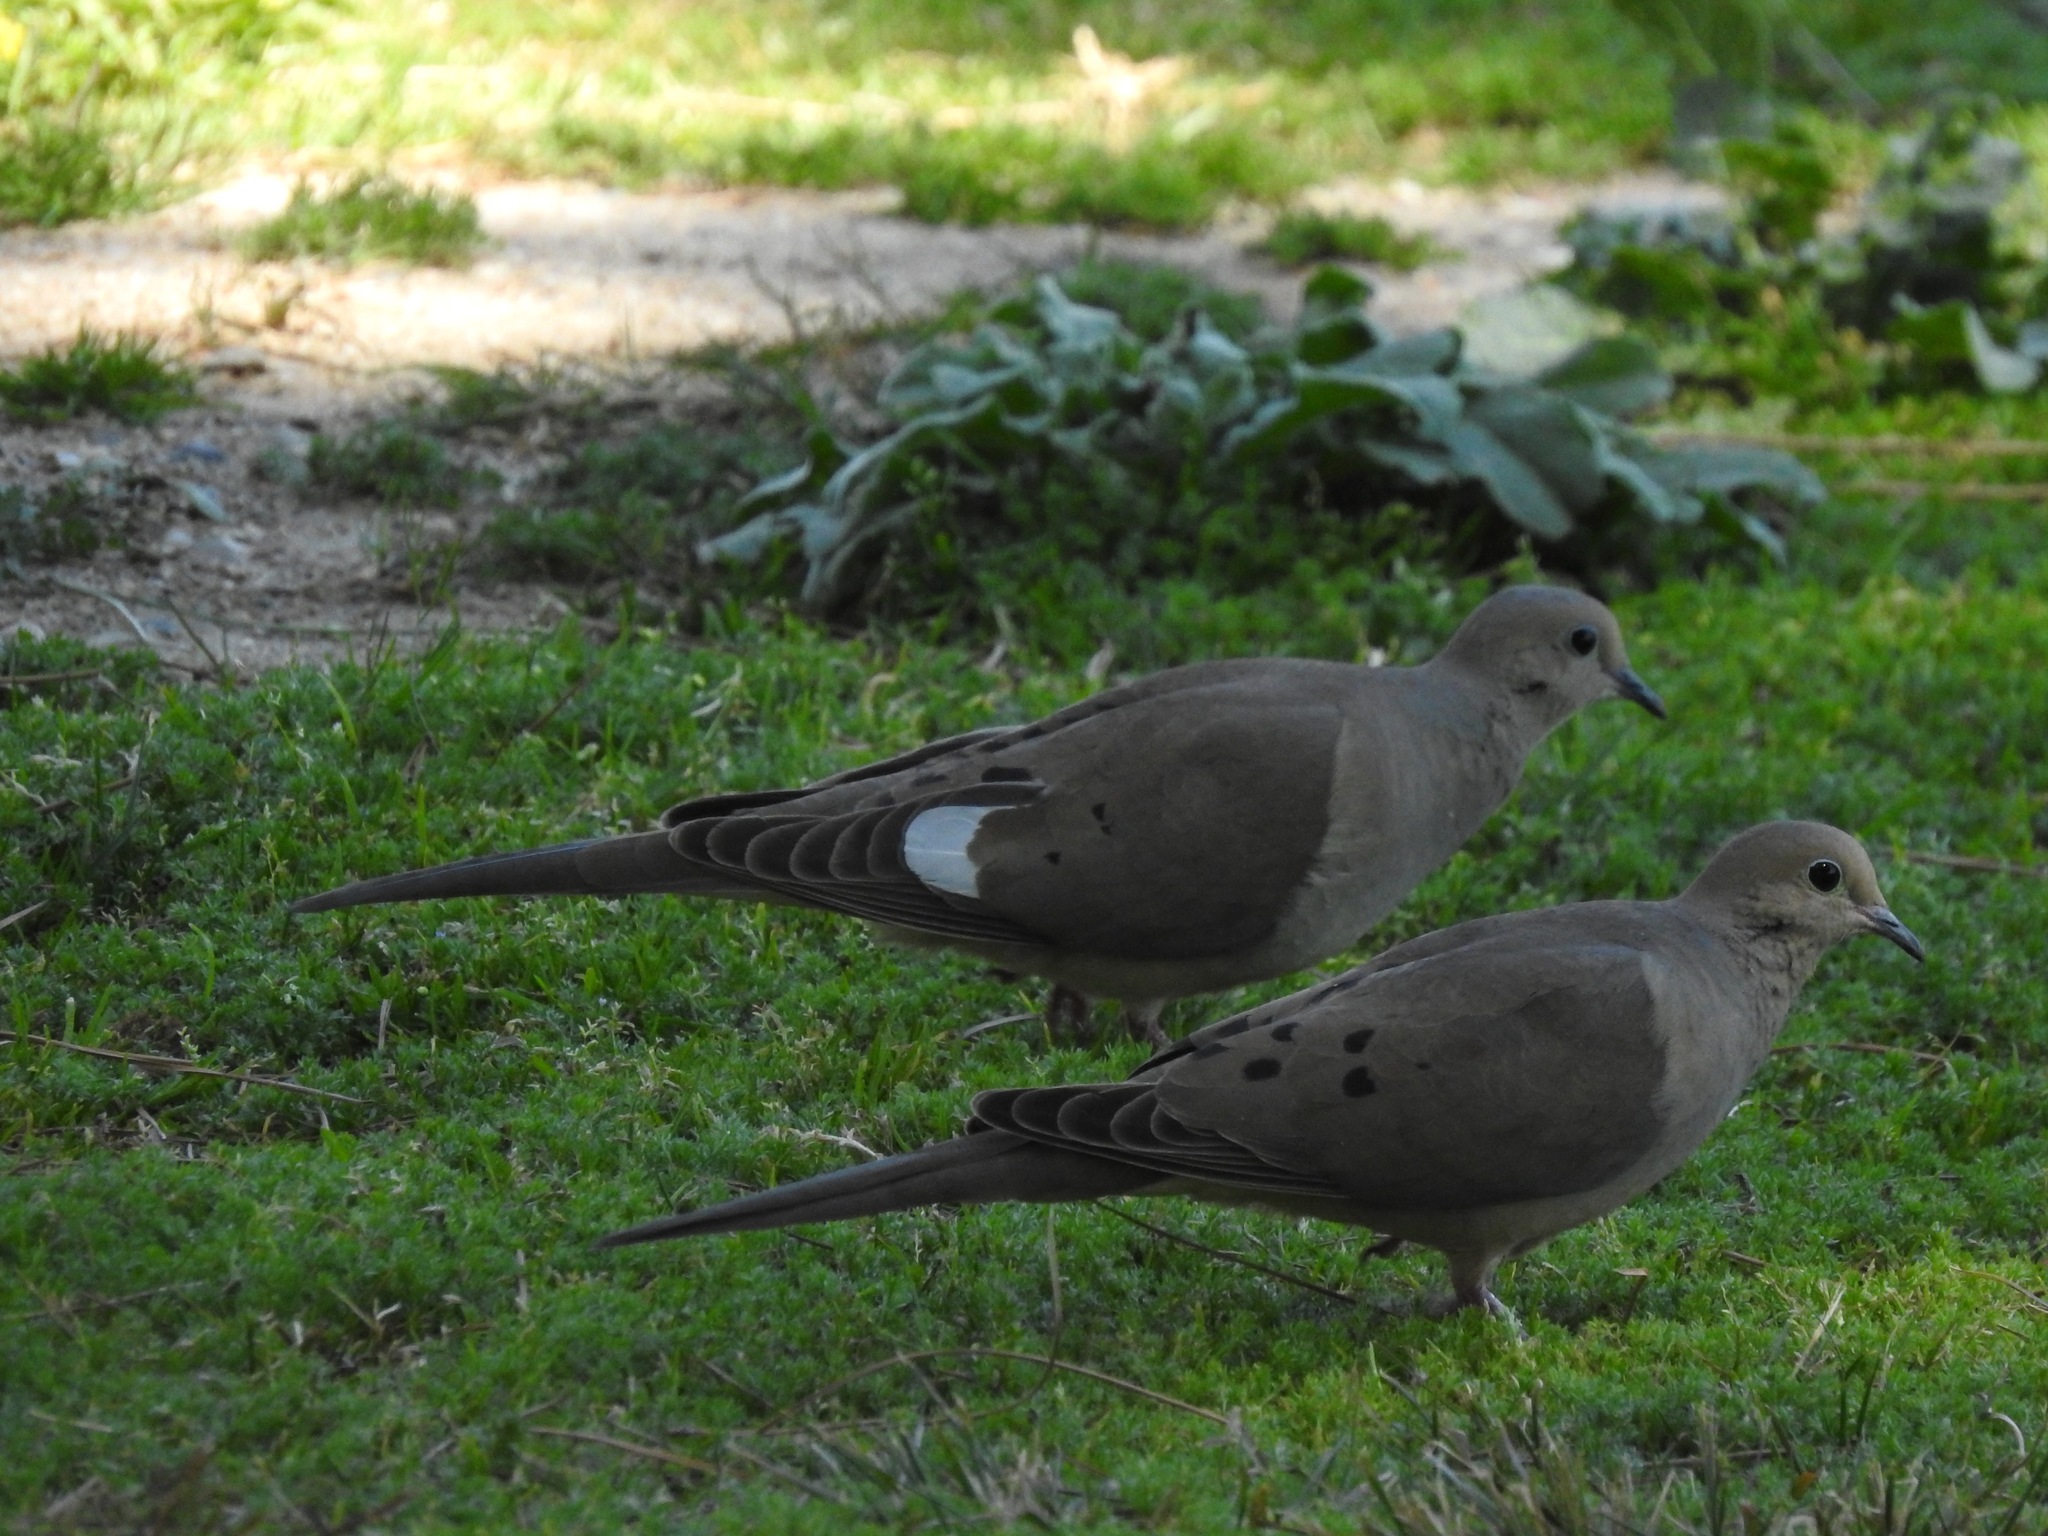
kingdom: Animalia
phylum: Chordata
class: Aves
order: Columbiformes
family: Columbidae
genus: Zenaida
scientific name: Zenaida macroura
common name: Mourning dove
